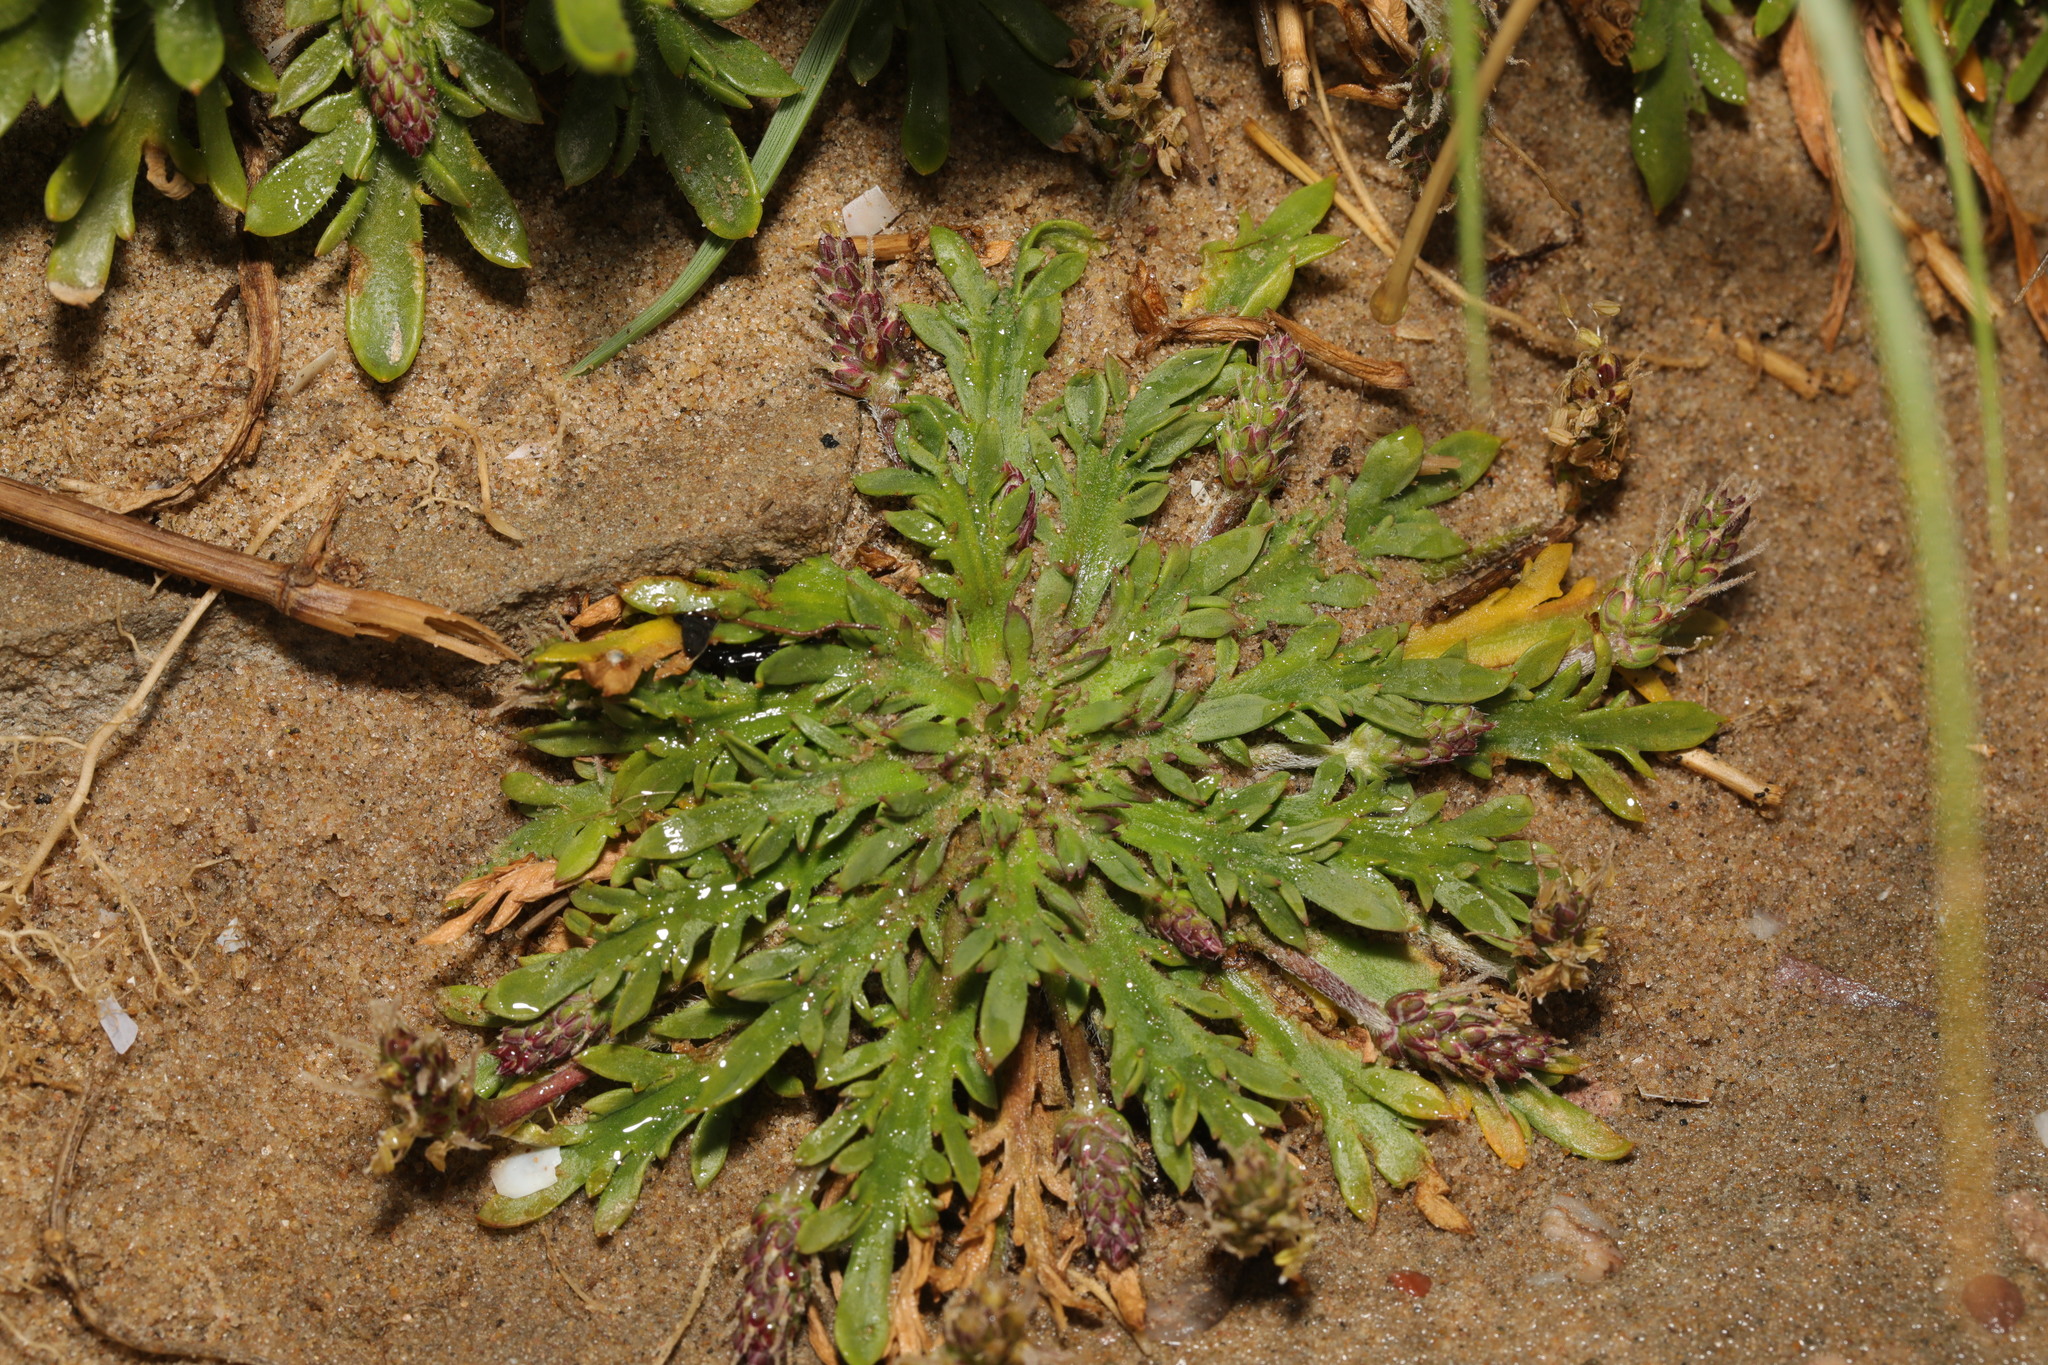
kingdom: Plantae
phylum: Tracheophyta
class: Magnoliopsida
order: Lamiales
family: Plantaginaceae
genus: Plantago
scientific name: Plantago coronopus
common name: Buck's-horn plantain
